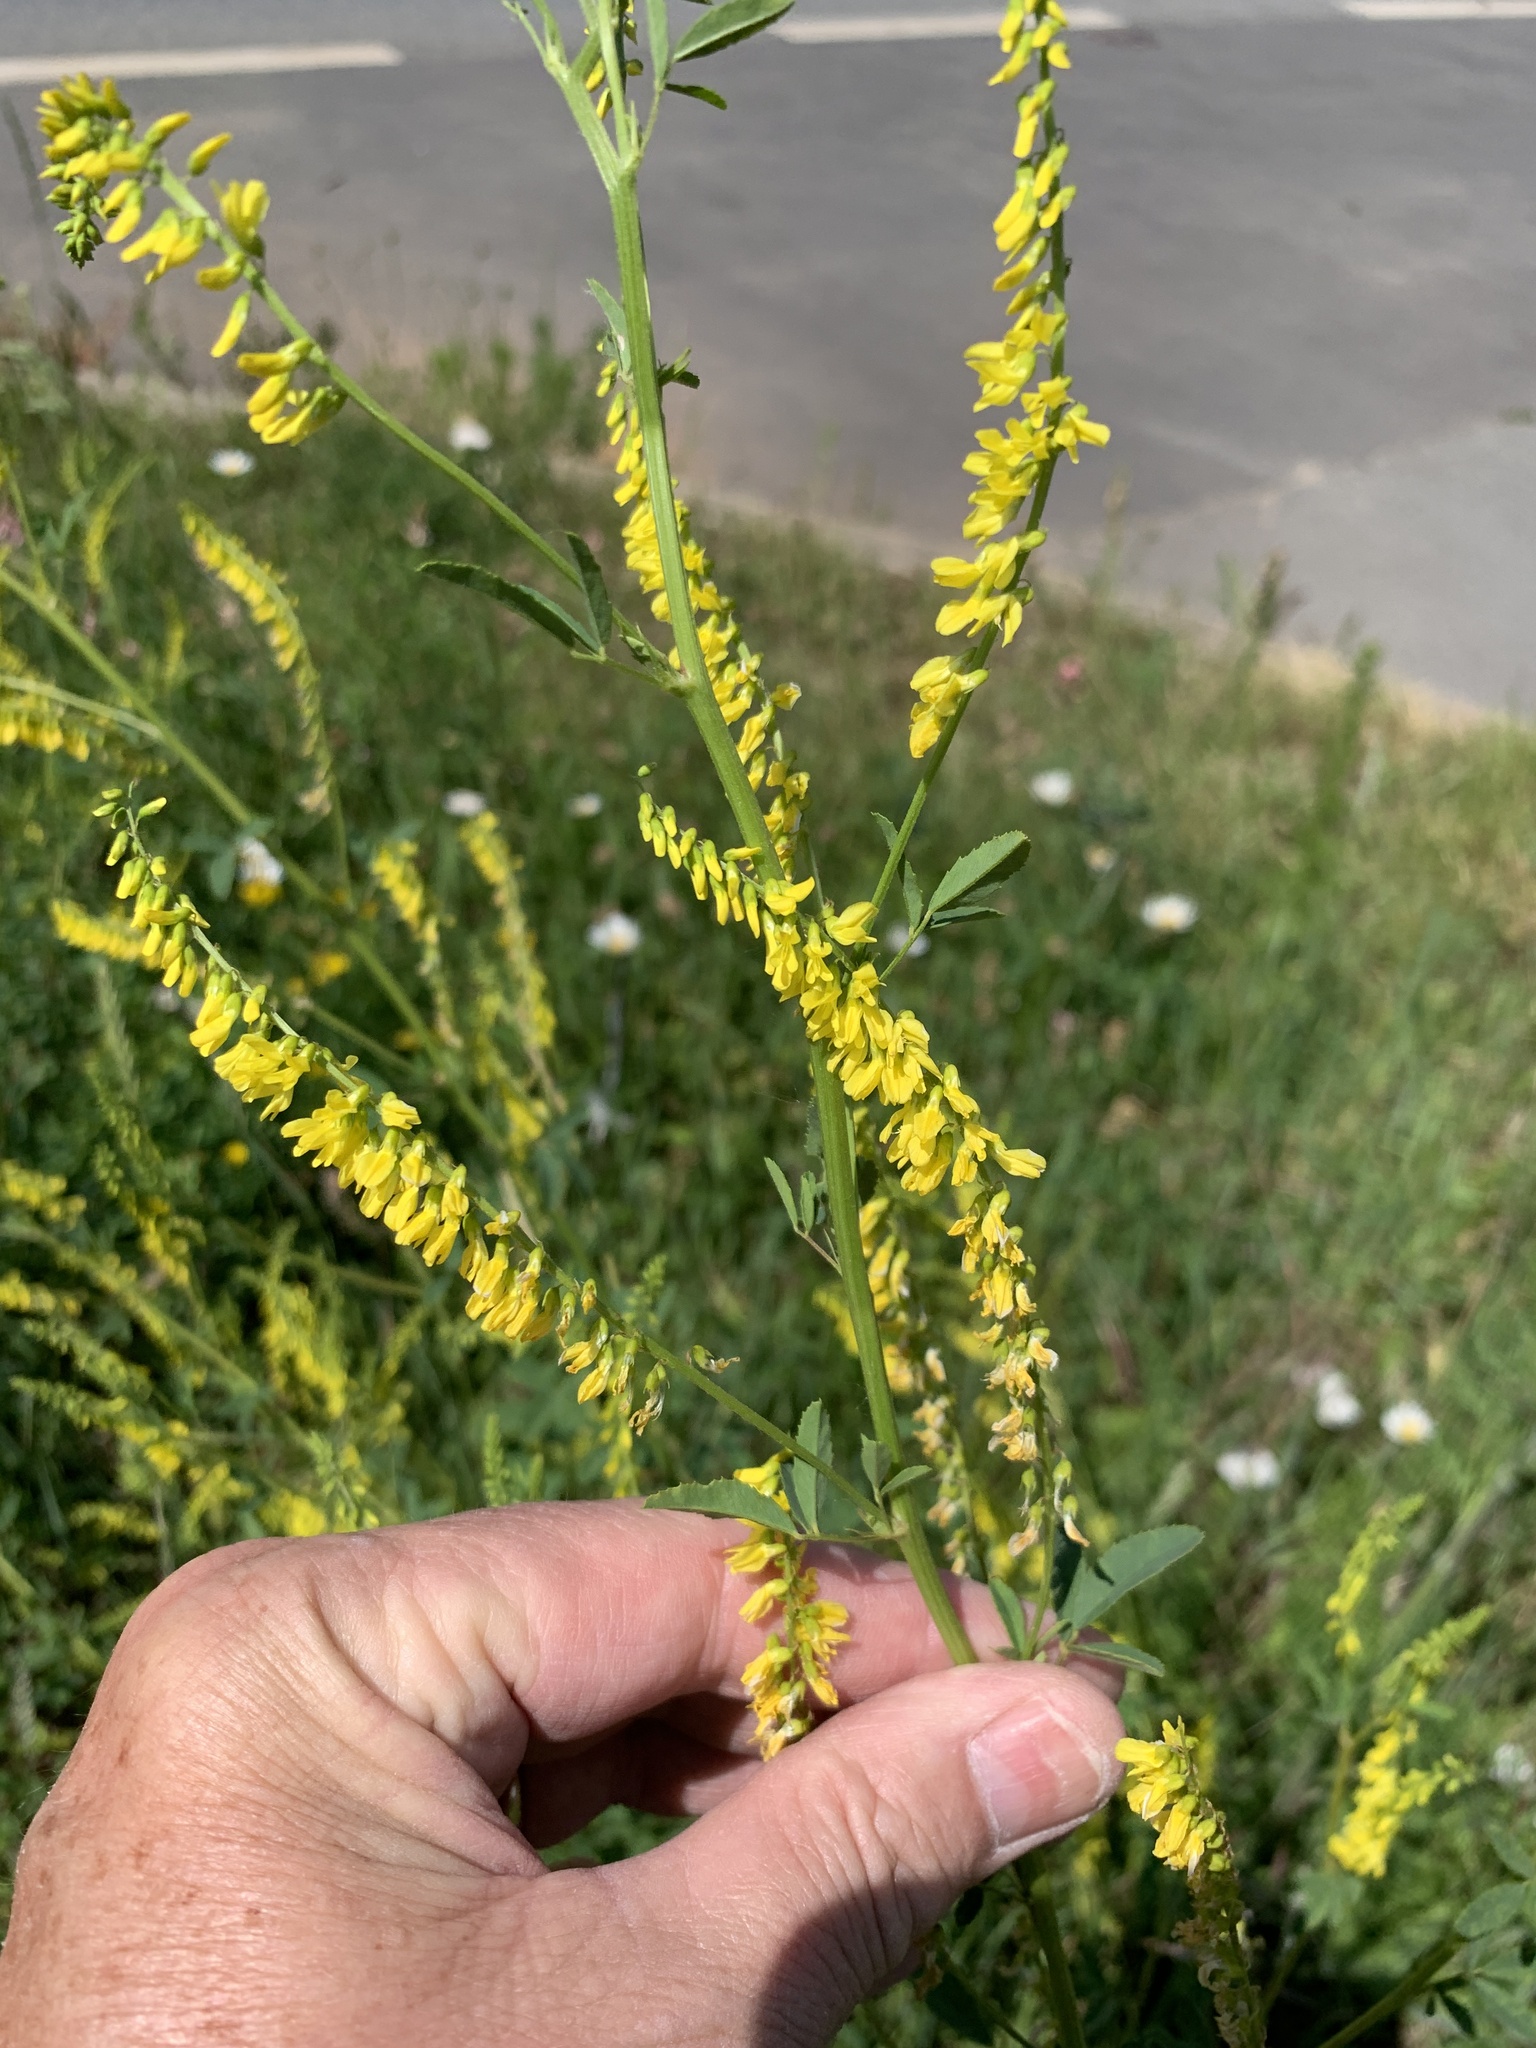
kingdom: Plantae
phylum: Tracheophyta
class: Magnoliopsida
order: Fabales
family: Fabaceae
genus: Melilotus
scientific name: Melilotus officinalis
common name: Sweetclover
